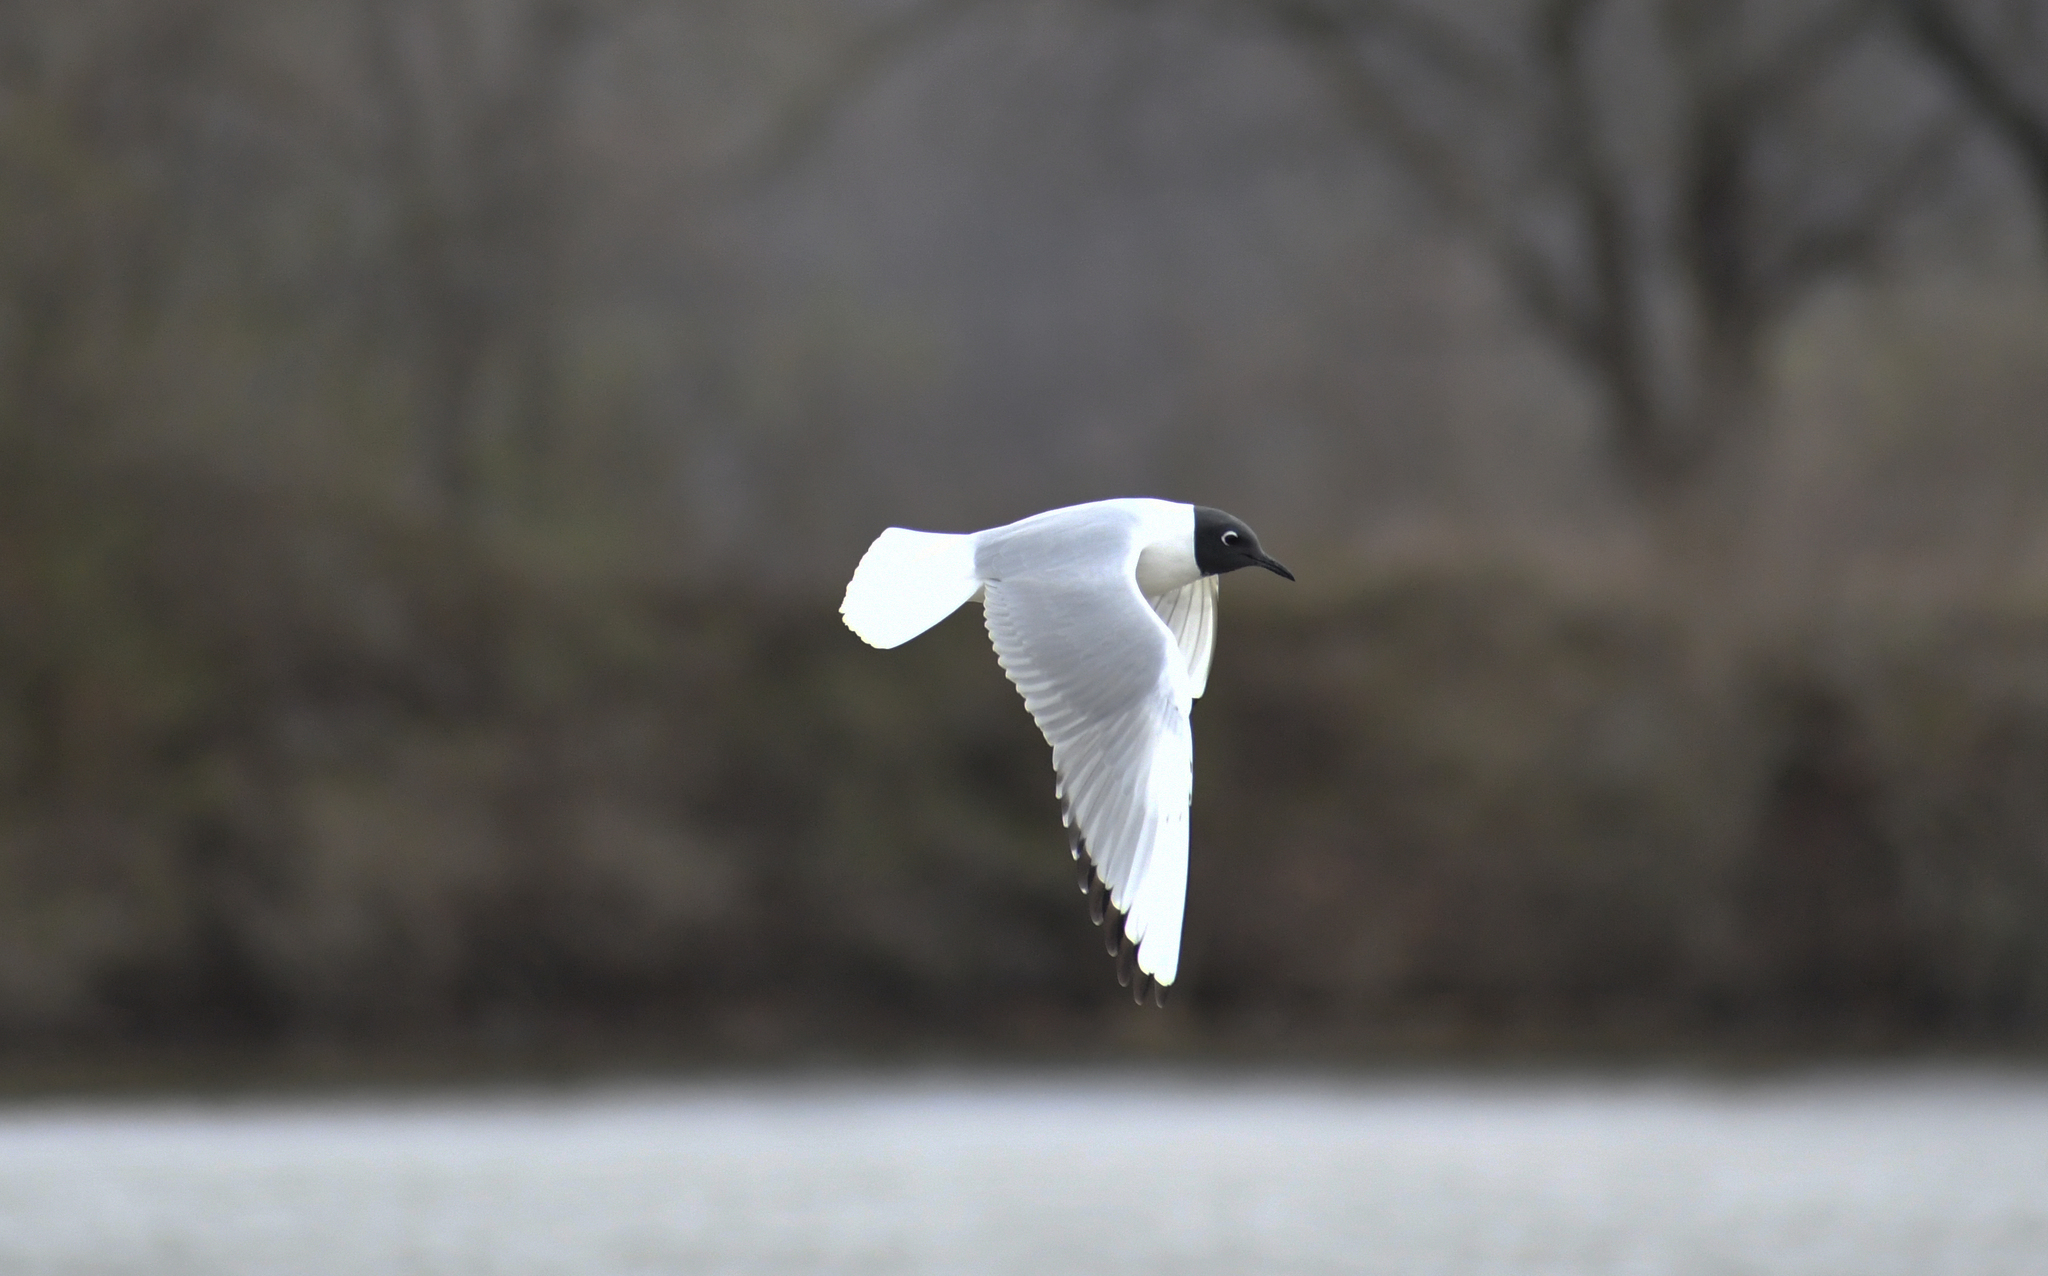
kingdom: Animalia
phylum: Chordata
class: Aves
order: Charadriiformes
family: Laridae
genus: Chroicocephalus
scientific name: Chroicocephalus philadelphia
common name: Bonaparte's gull
